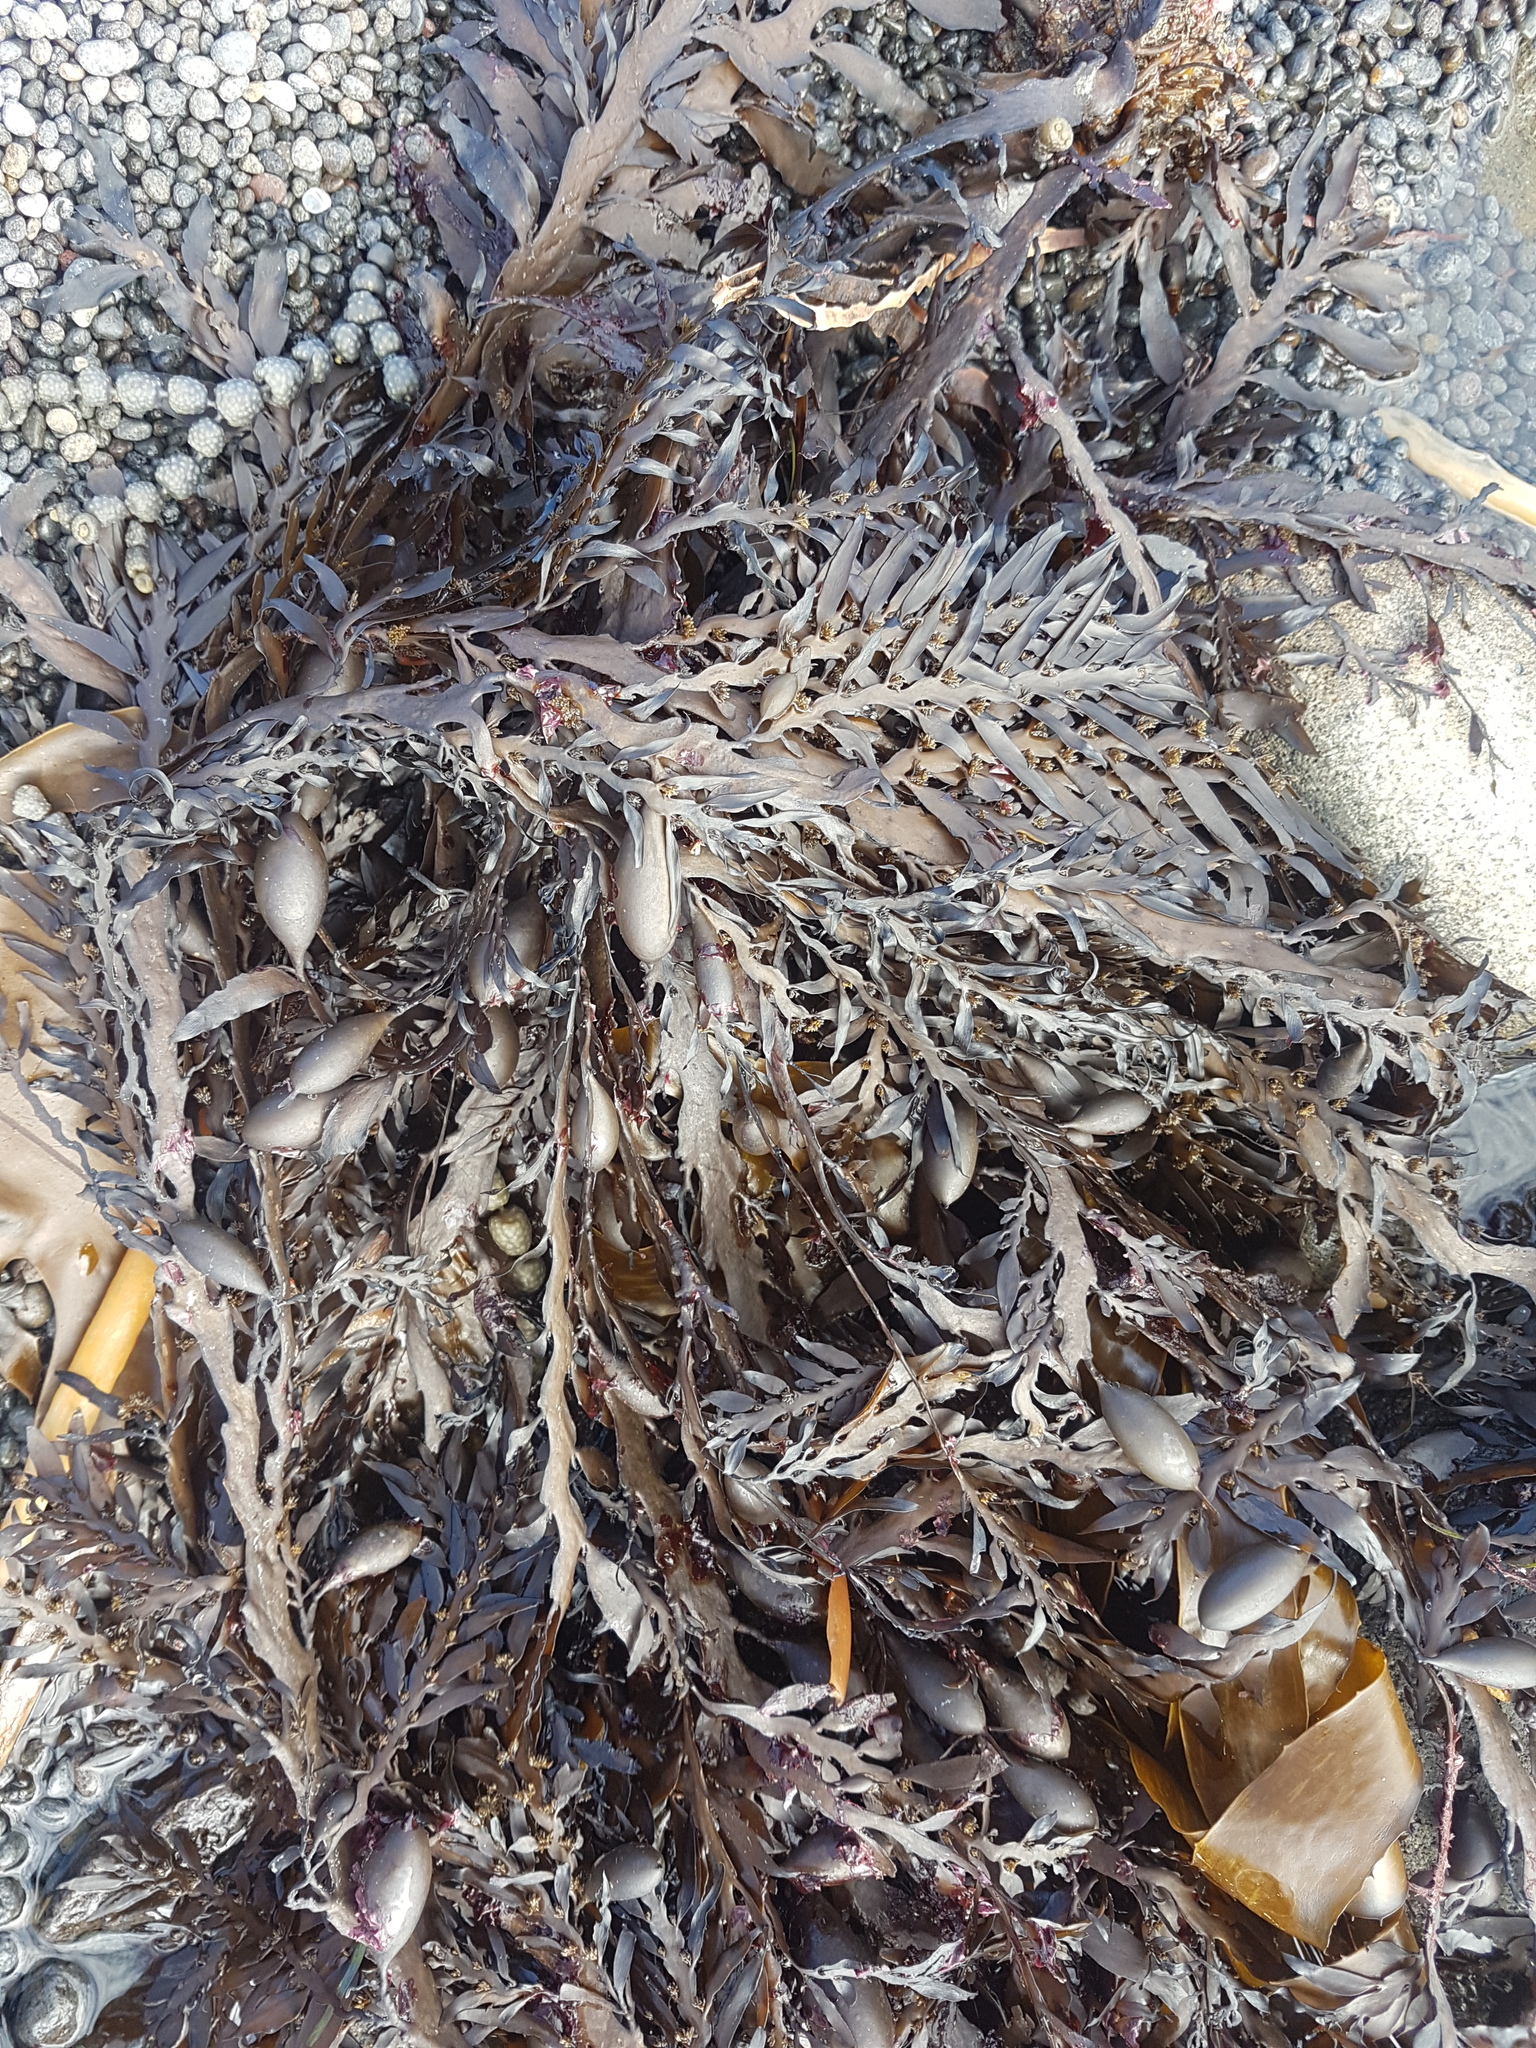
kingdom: Chromista
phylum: Ochrophyta
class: Phaeophyceae
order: Fucales
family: Sargassaceae
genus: Carpophyllum
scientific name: Carpophyllum maschalocarpum
